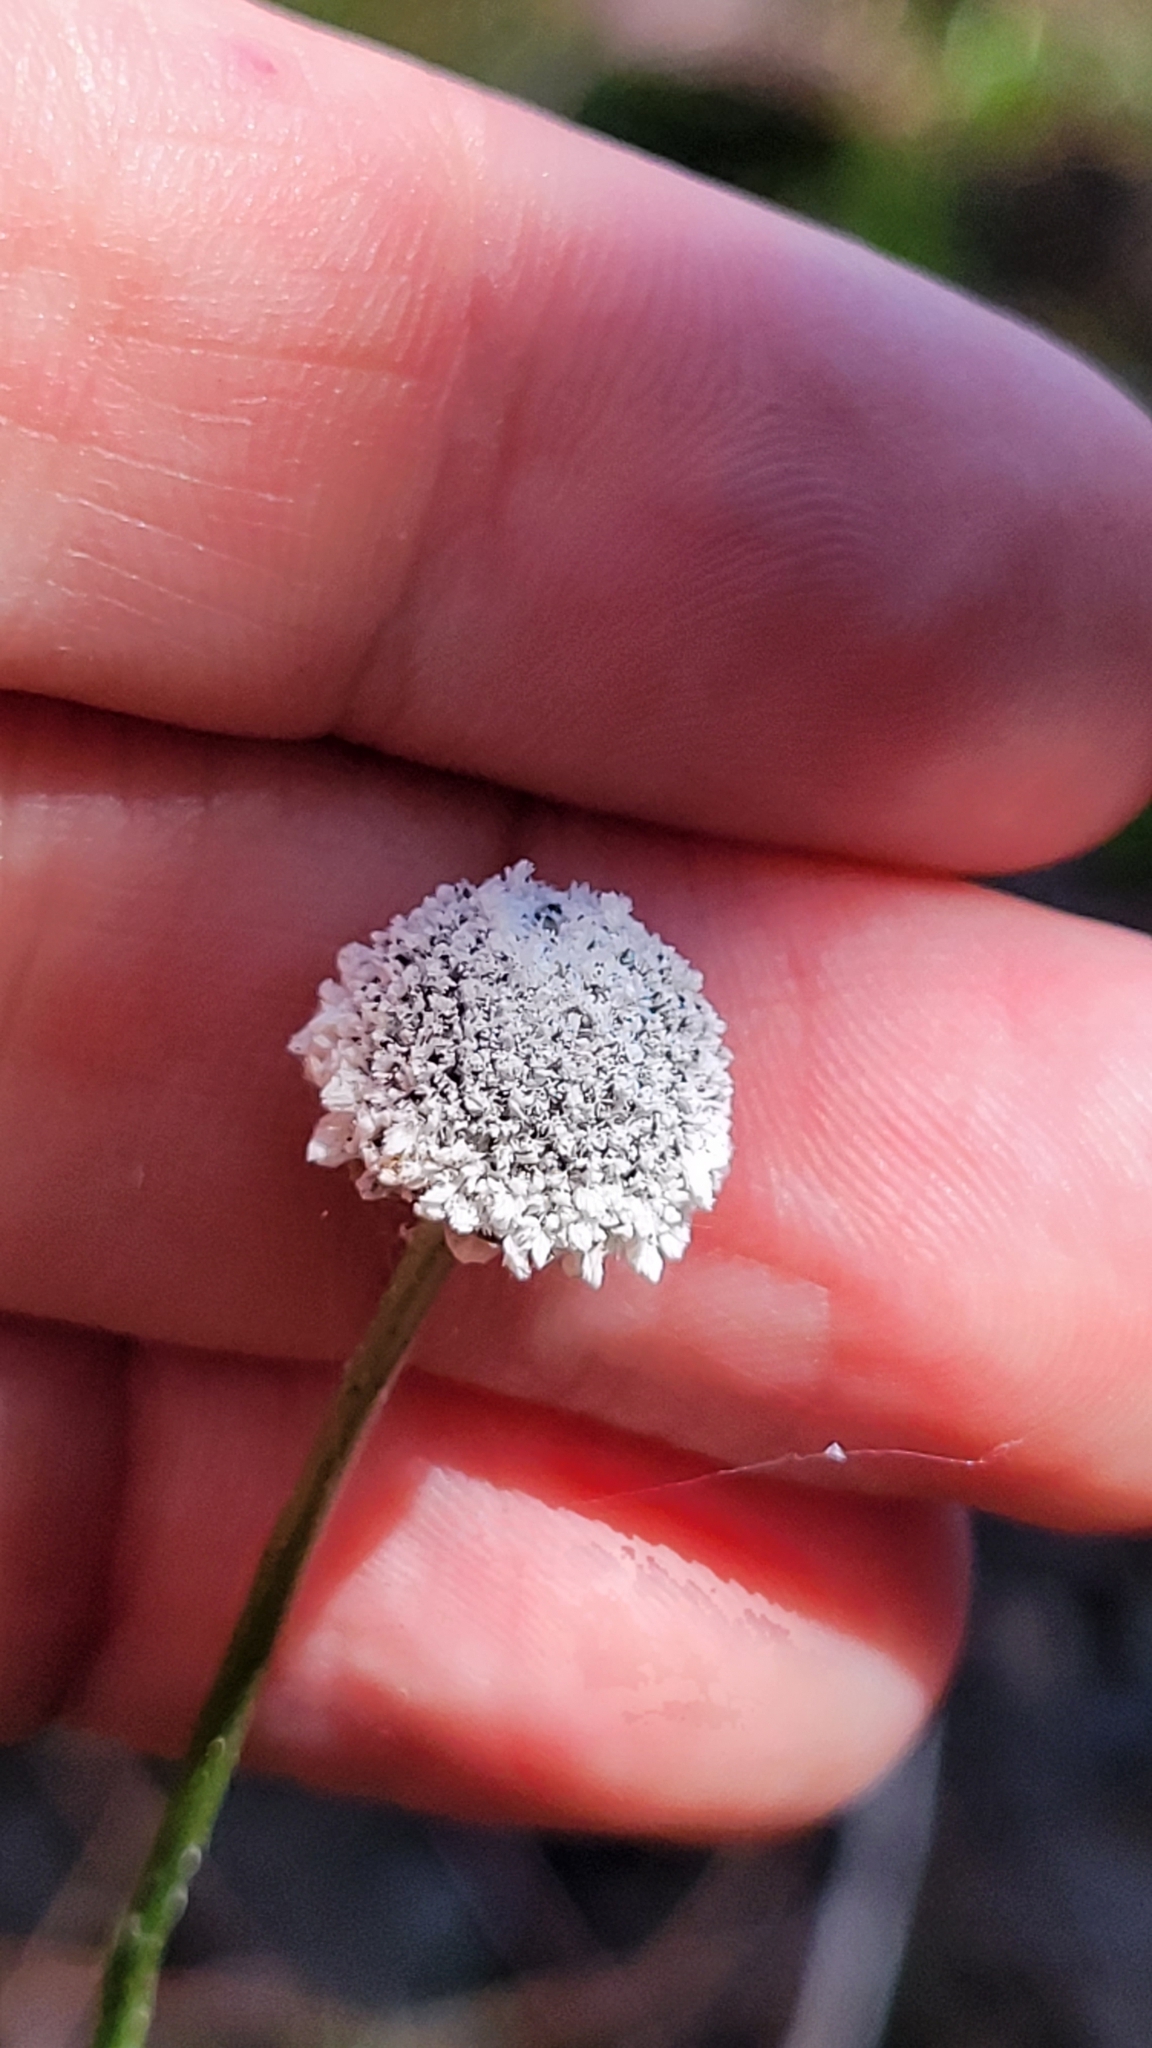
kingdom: Plantae
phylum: Tracheophyta
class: Liliopsida
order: Poales
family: Eriocaulaceae
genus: Eriocaulon
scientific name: Eriocaulon compressum
